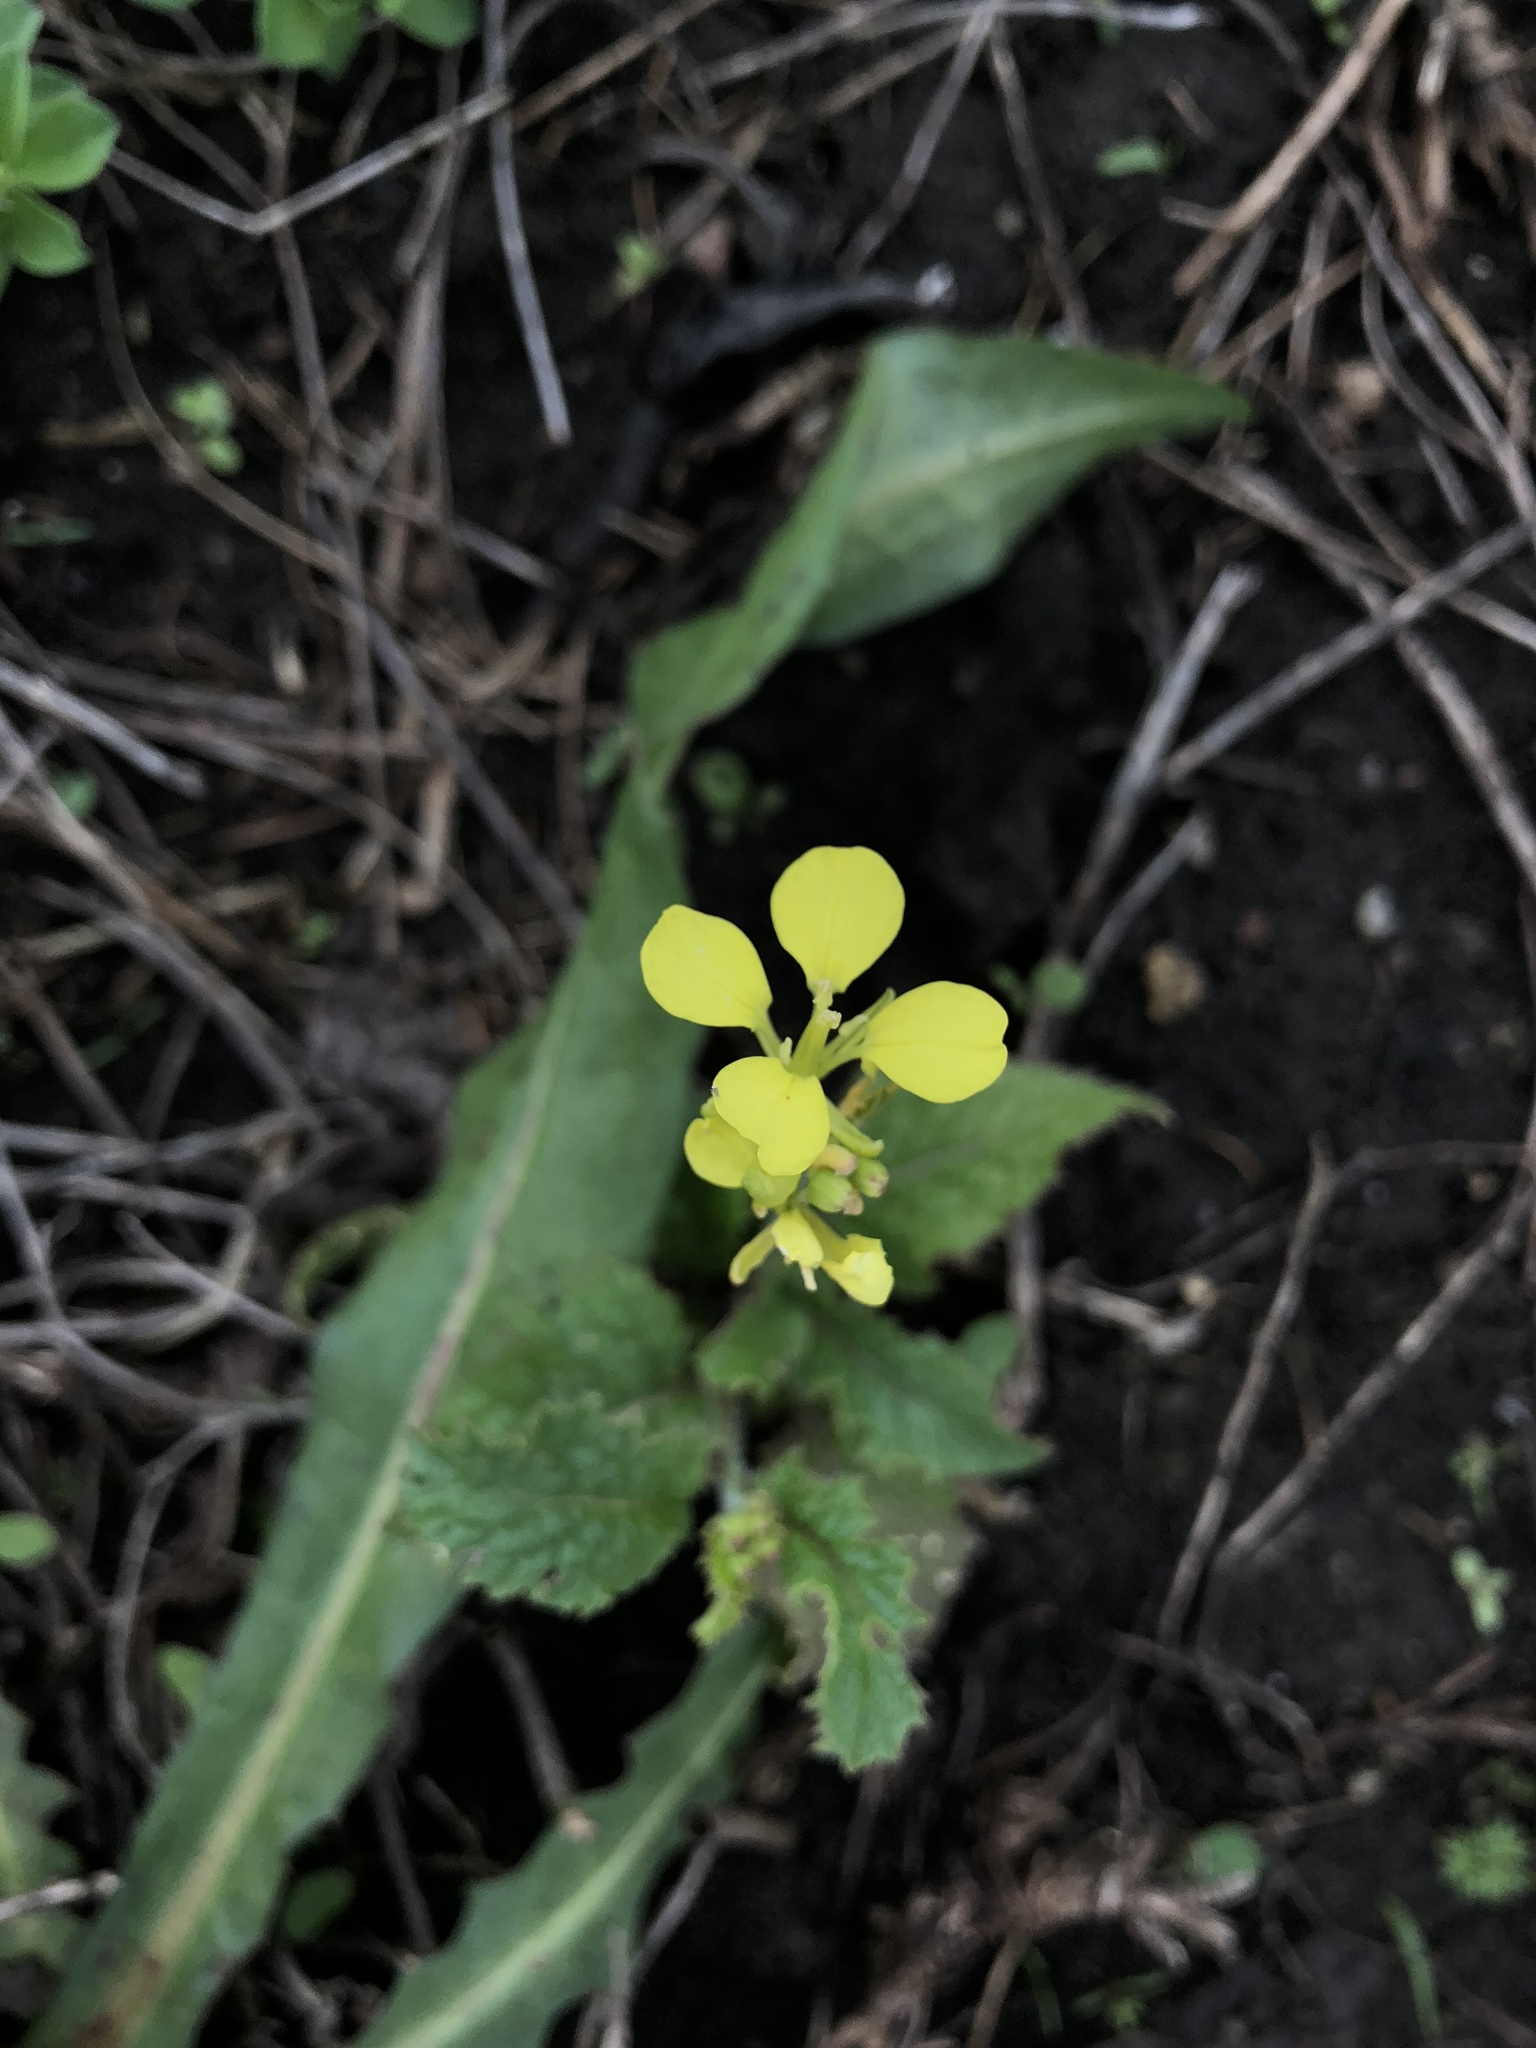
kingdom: Plantae
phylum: Tracheophyta
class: Magnoliopsida
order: Brassicales
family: Brassicaceae
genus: Sinapis
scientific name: Sinapis arvensis
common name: Charlock
